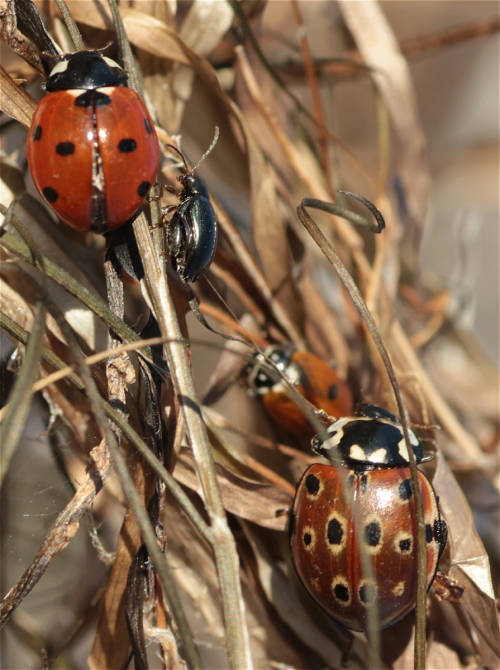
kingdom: Animalia
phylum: Arthropoda
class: Insecta
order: Coleoptera
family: Coccinellidae
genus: Anatis
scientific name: Anatis ocellata
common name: Eyed ladybird
